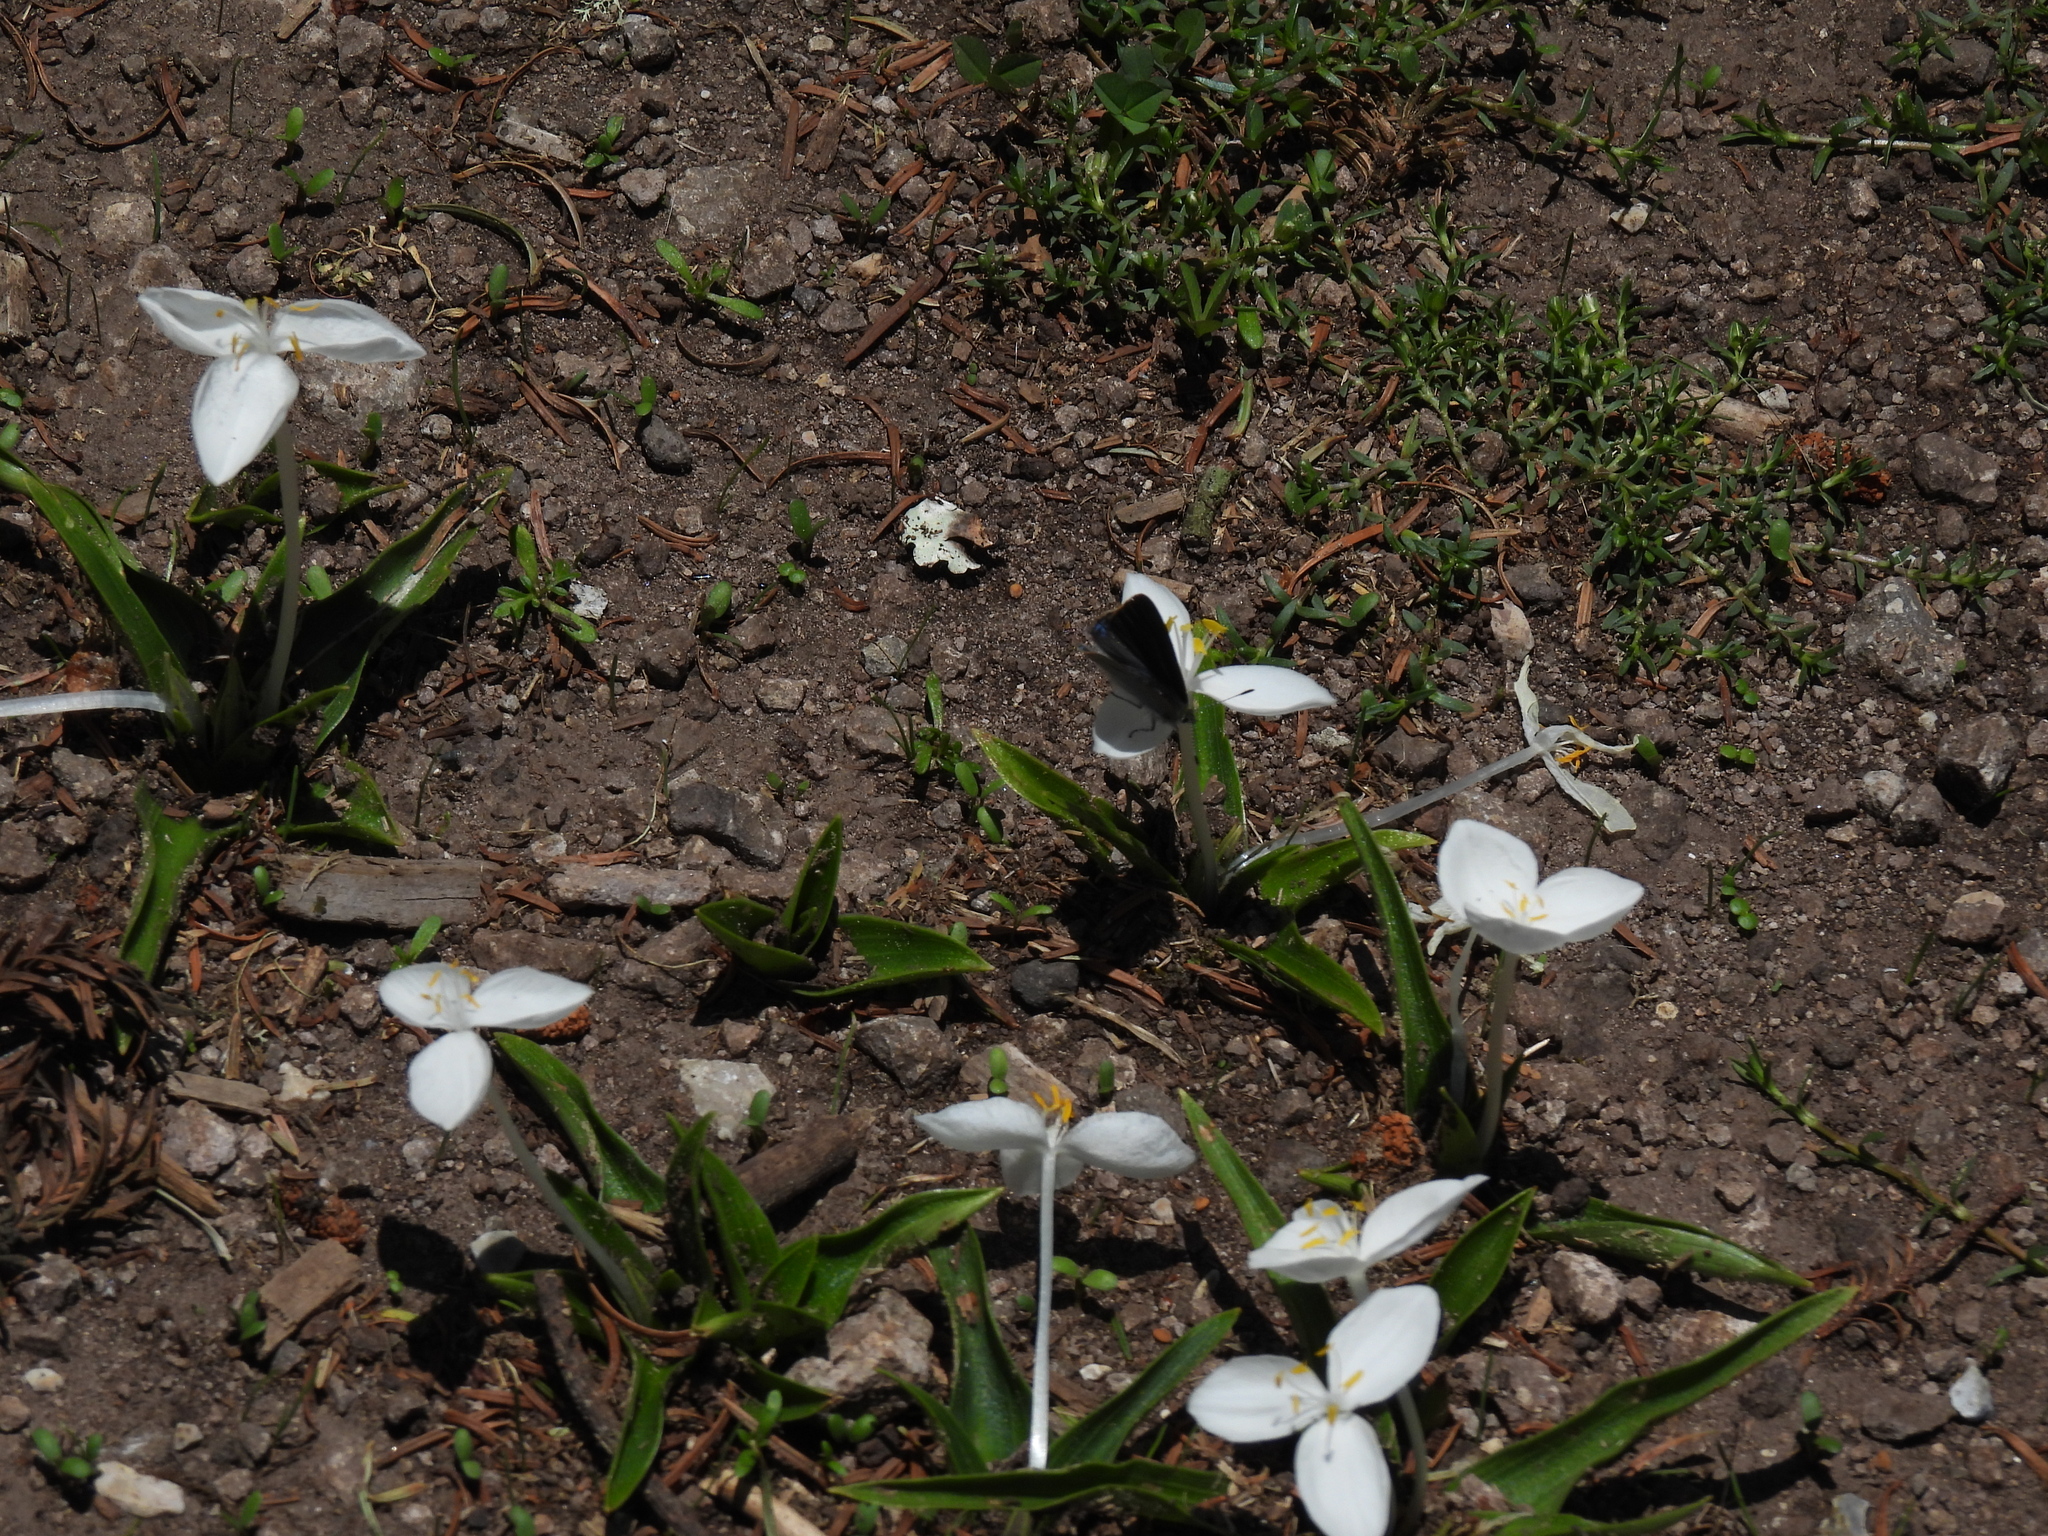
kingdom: Animalia
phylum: Arthropoda
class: Insecta
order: Lepidoptera
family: Lycaenidae
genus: Erora
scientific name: Erora quaderna
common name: Arizona hairstreak
